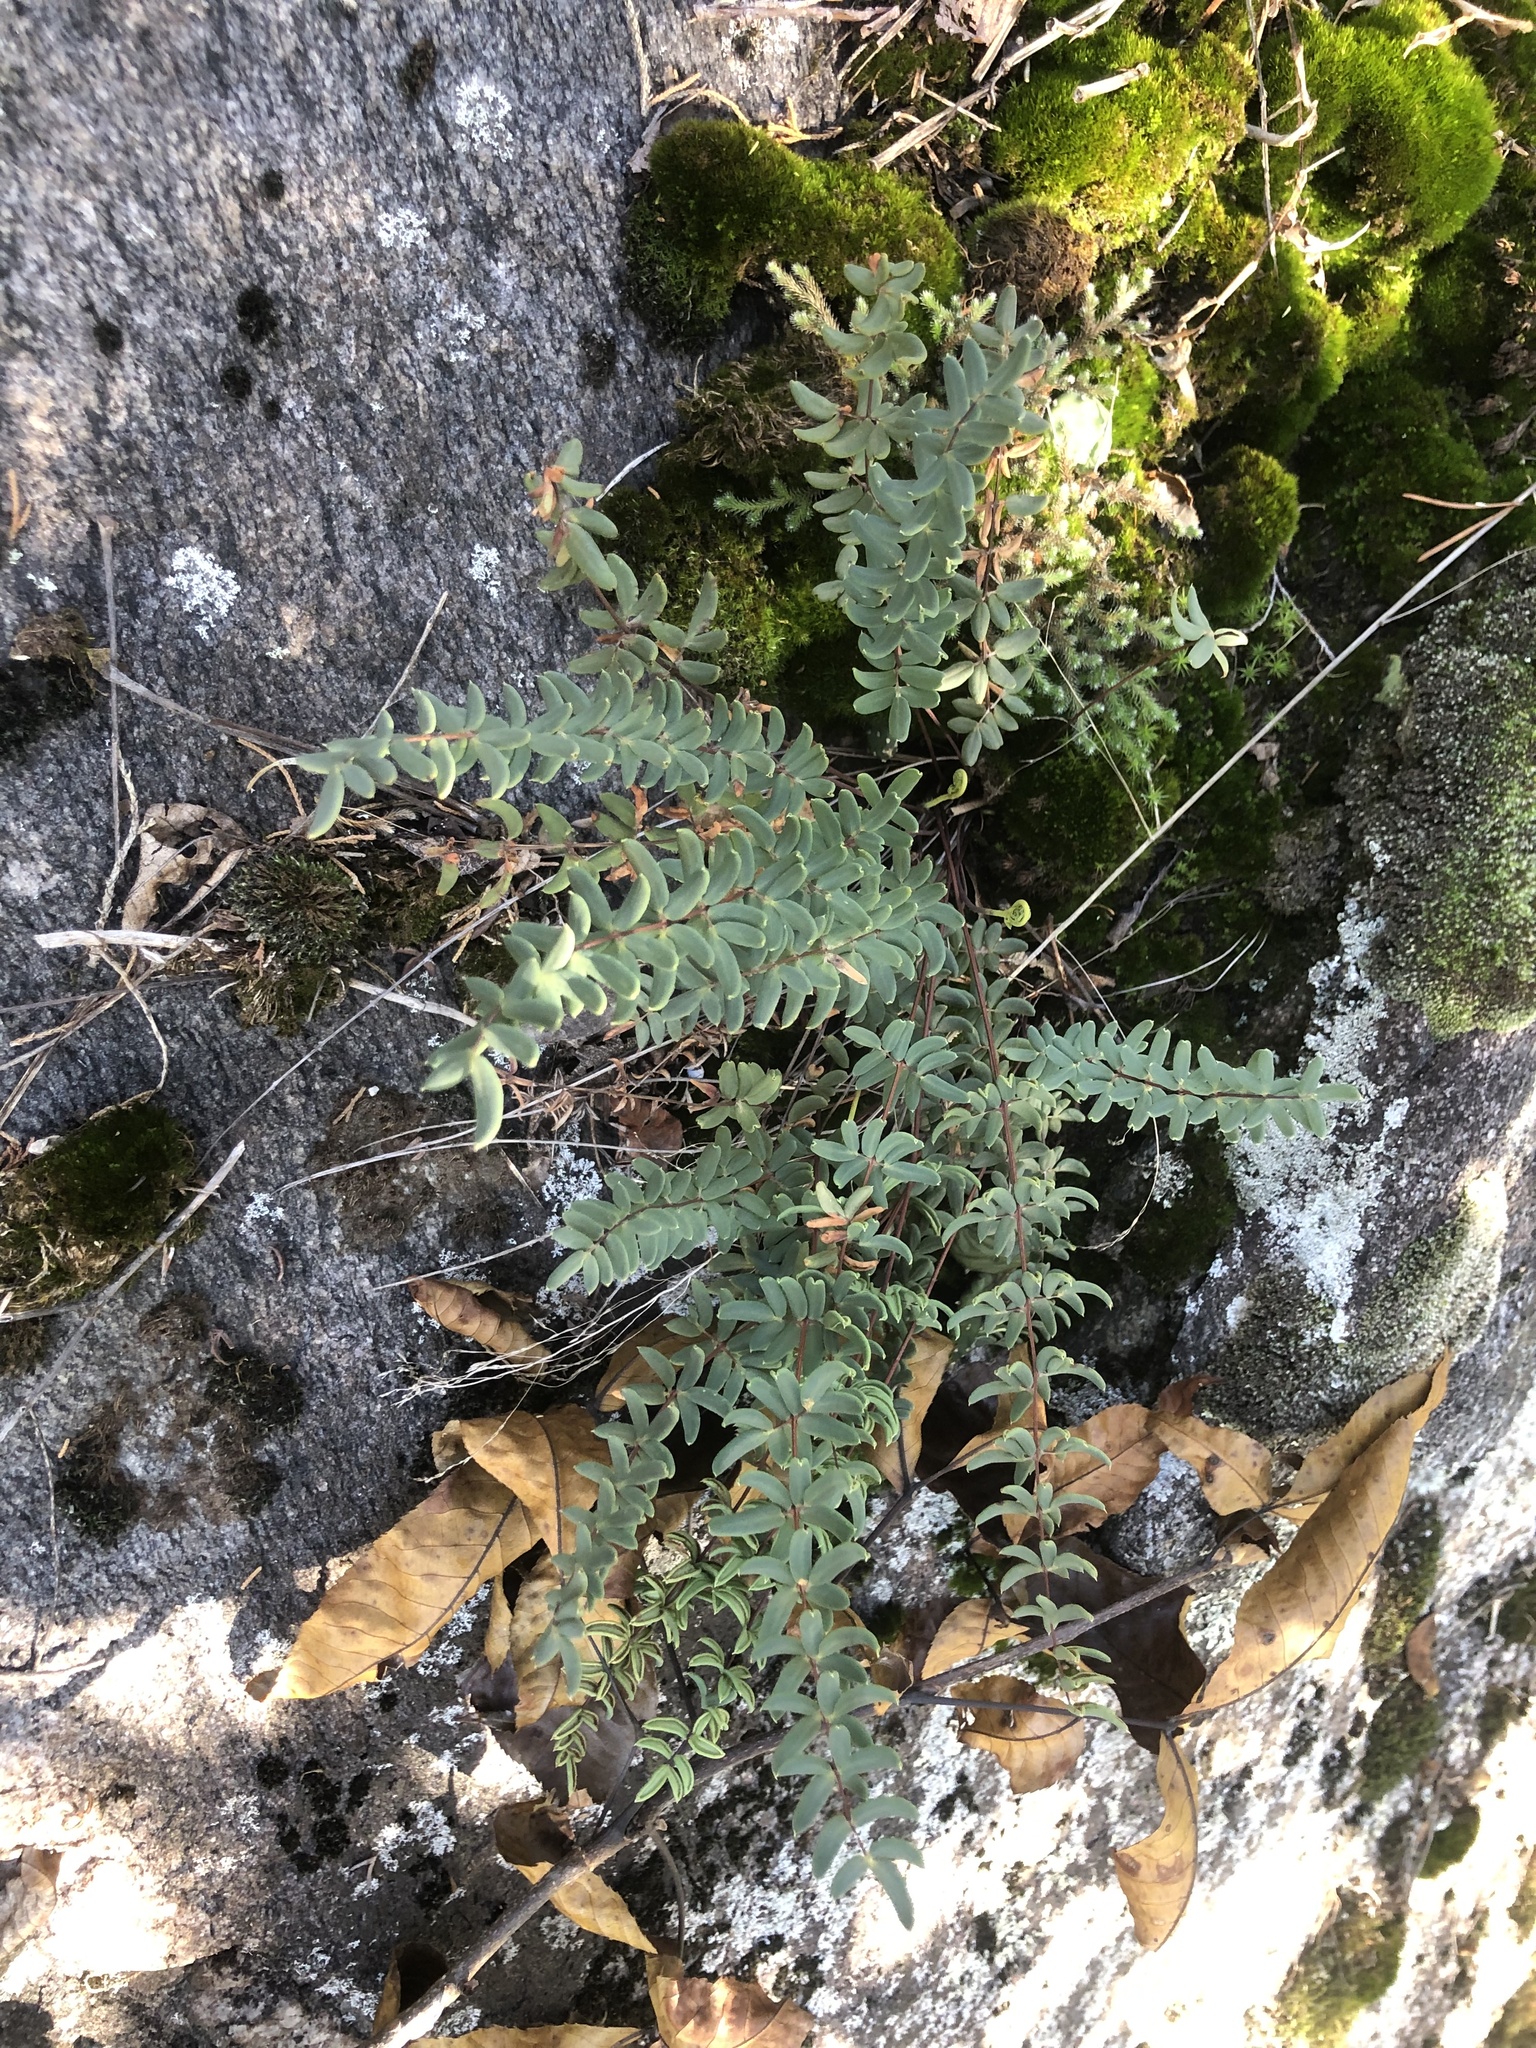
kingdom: Plantae
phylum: Tracheophyta
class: Polypodiopsida
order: Polypodiales
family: Pteridaceae
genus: Pellaea
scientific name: Pellaea wrightiana
